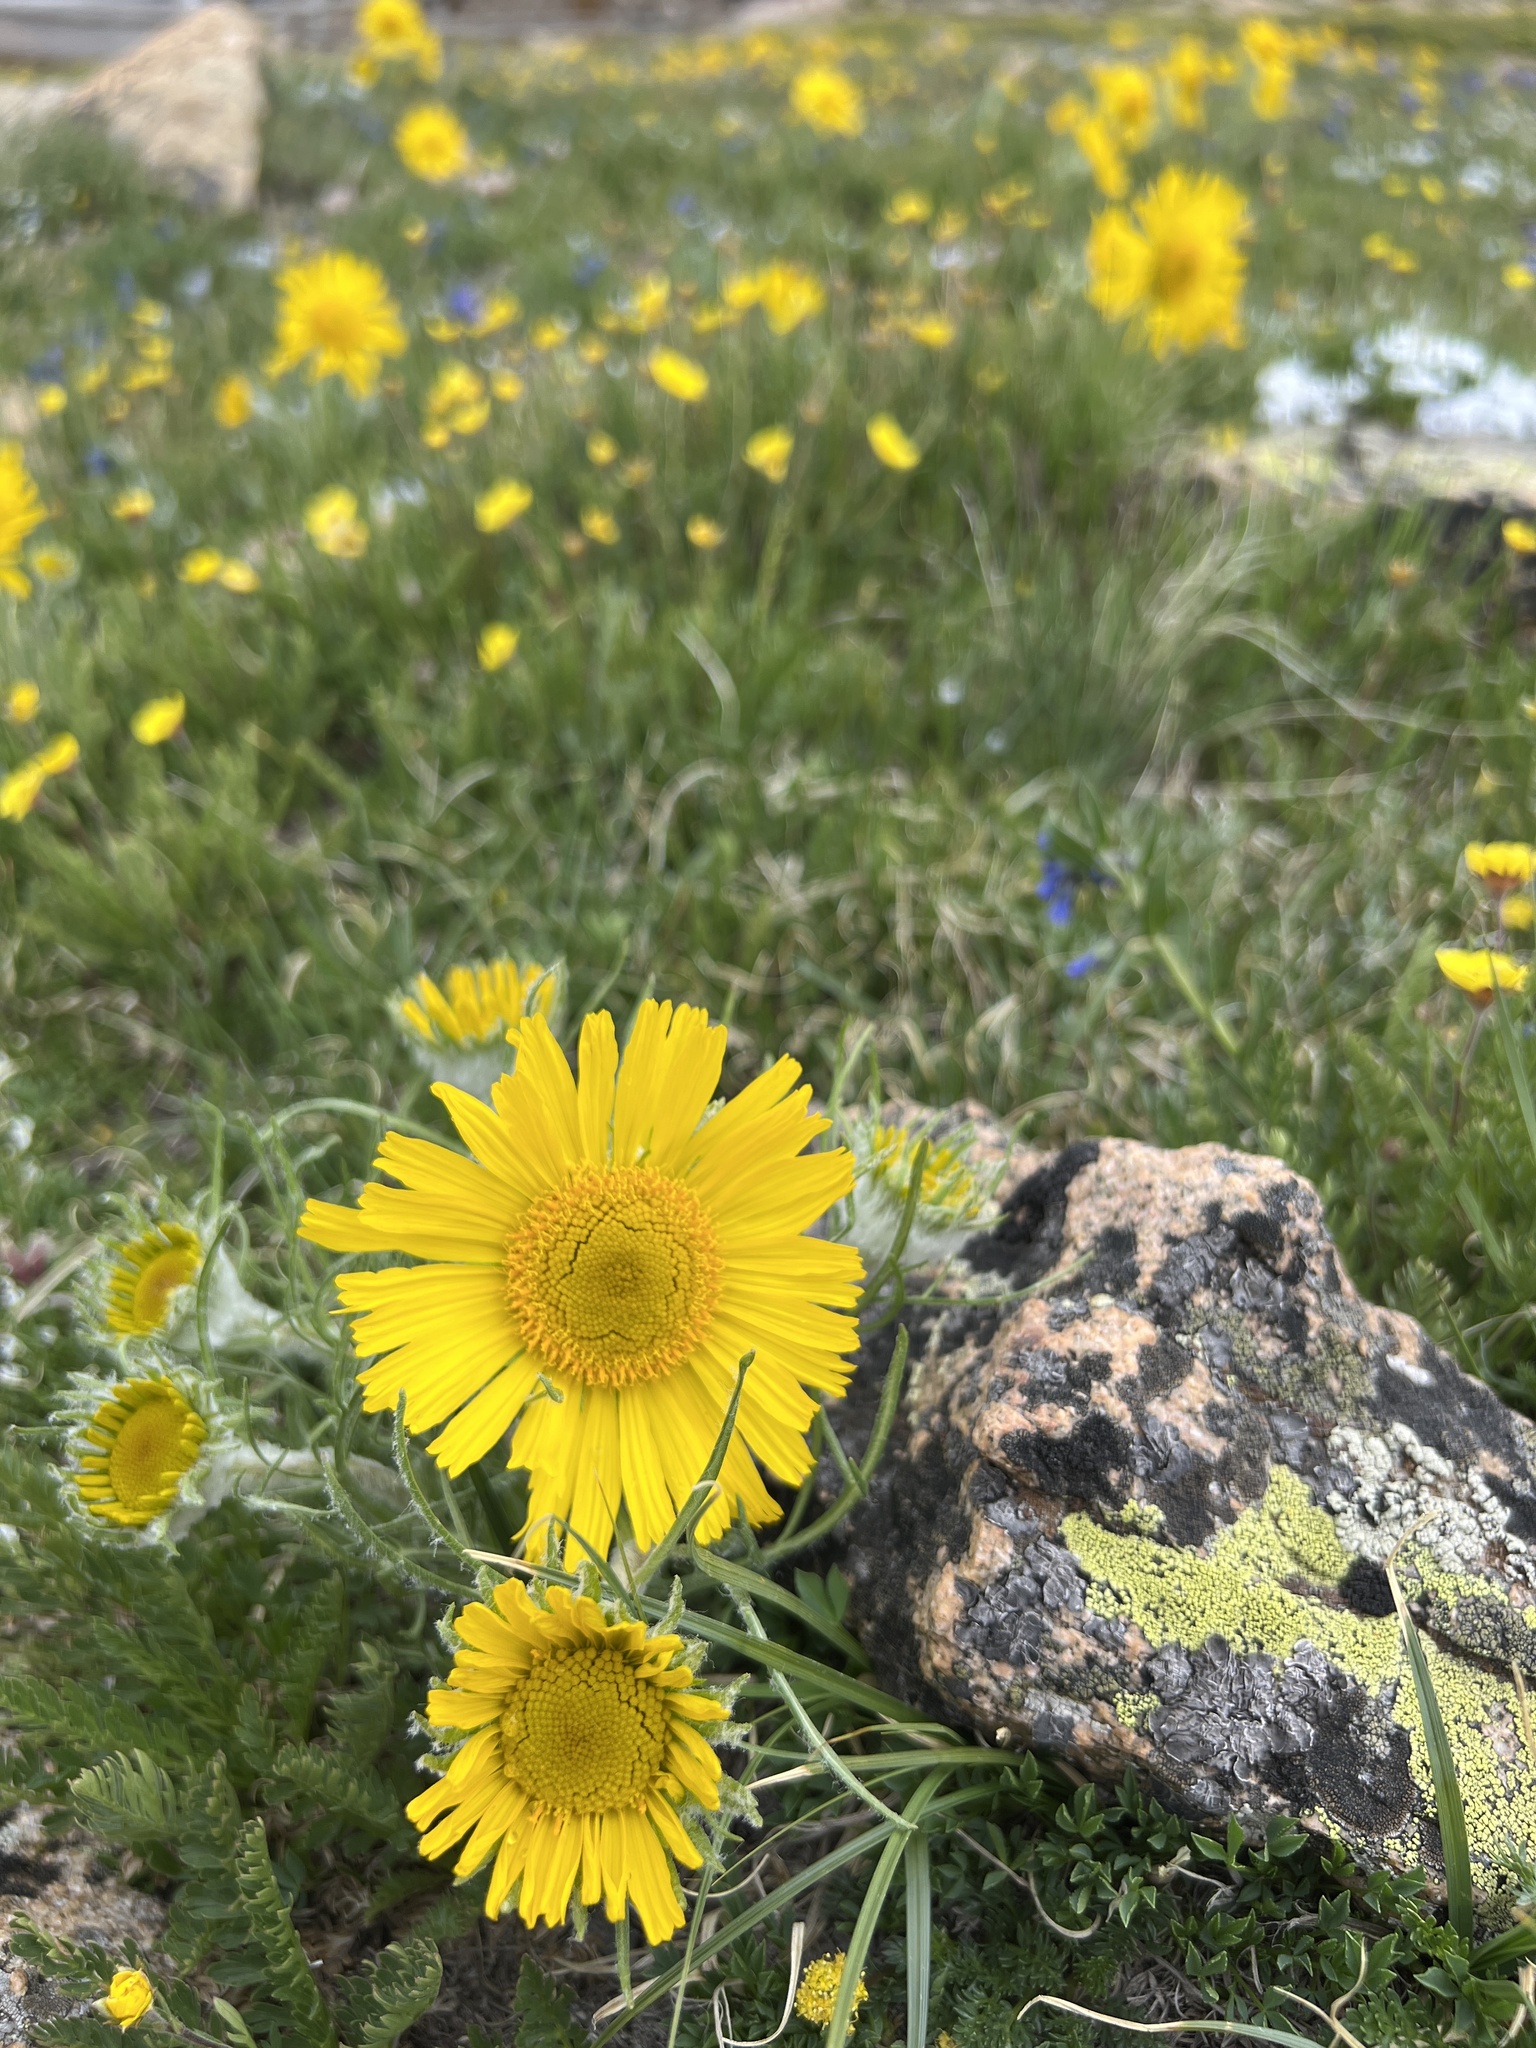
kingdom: Plantae
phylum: Tracheophyta
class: Magnoliopsida
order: Asterales
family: Asteraceae
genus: Hymenoxys
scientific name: Hymenoxys grandiflora
